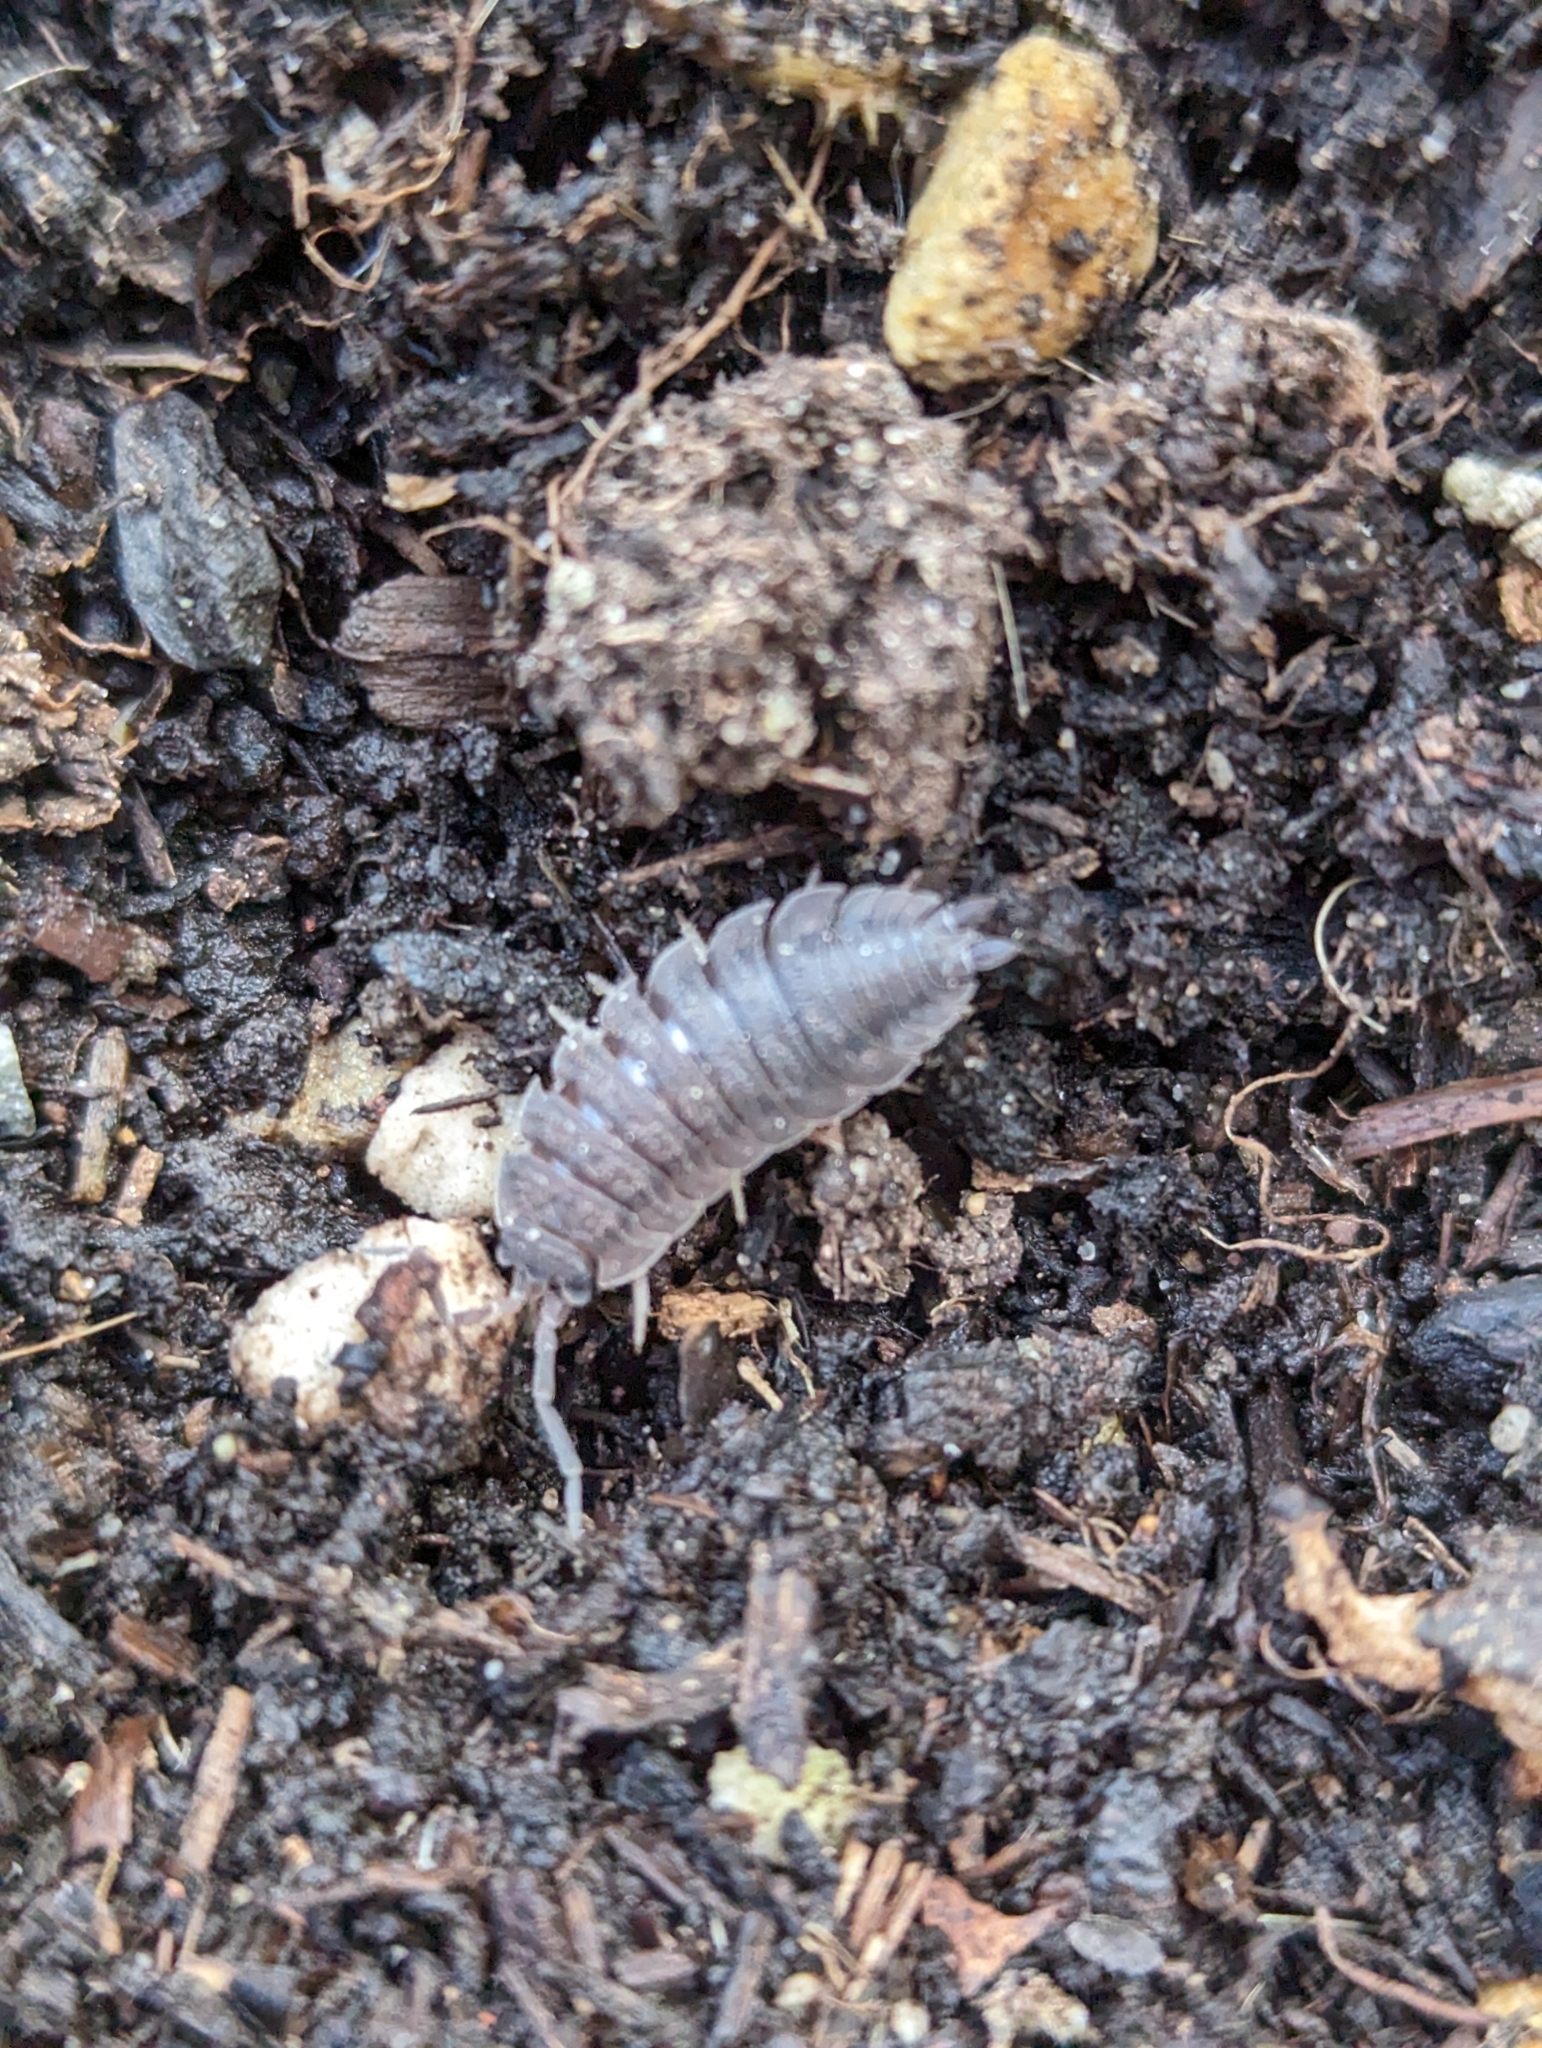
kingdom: Animalia
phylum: Arthropoda
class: Malacostraca
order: Isopoda
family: Porcellionidae
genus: Porcellio
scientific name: Porcellio scaber
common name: Common rough woodlouse
